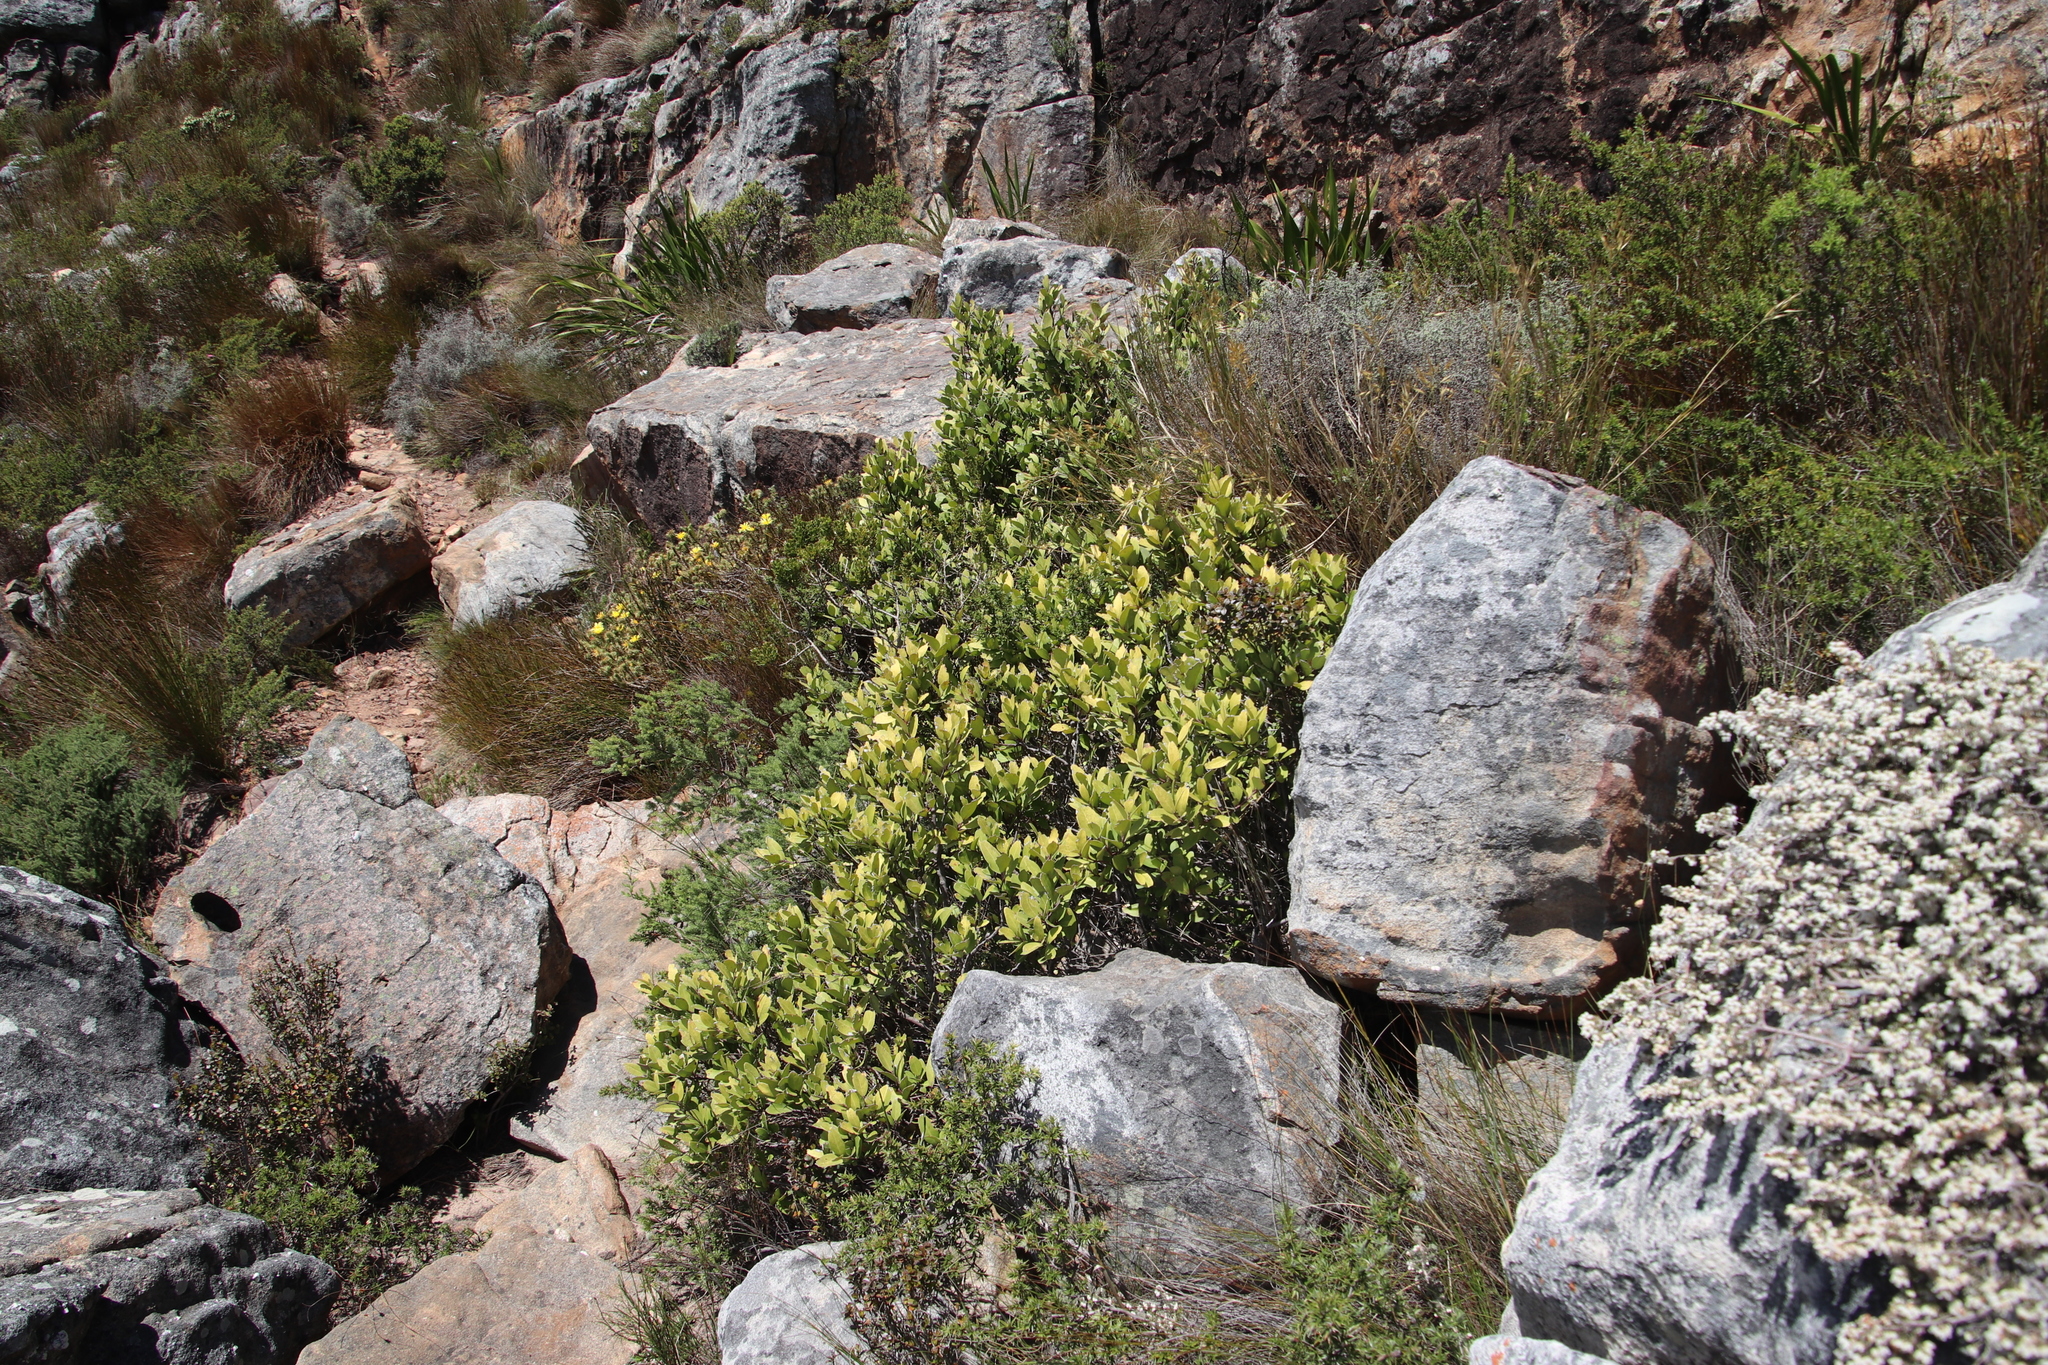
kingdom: Plantae
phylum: Tracheophyta
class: Magnoliopsida
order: Celastrales
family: Celastraceae
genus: Gymnosporia
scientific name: Gymnosporia laurina
